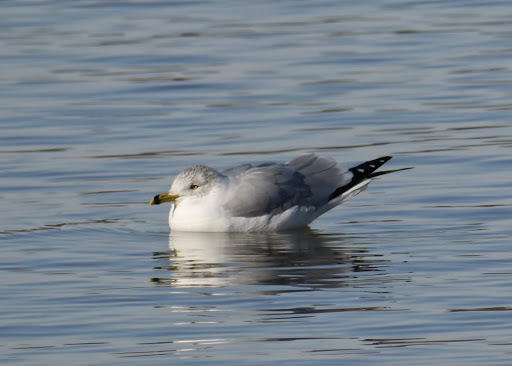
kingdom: Animalia
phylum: Chordata
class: Aves
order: Charadriiformes
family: Laridae
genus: Larus
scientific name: Larus delawarensis
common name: Ring-billed gull
